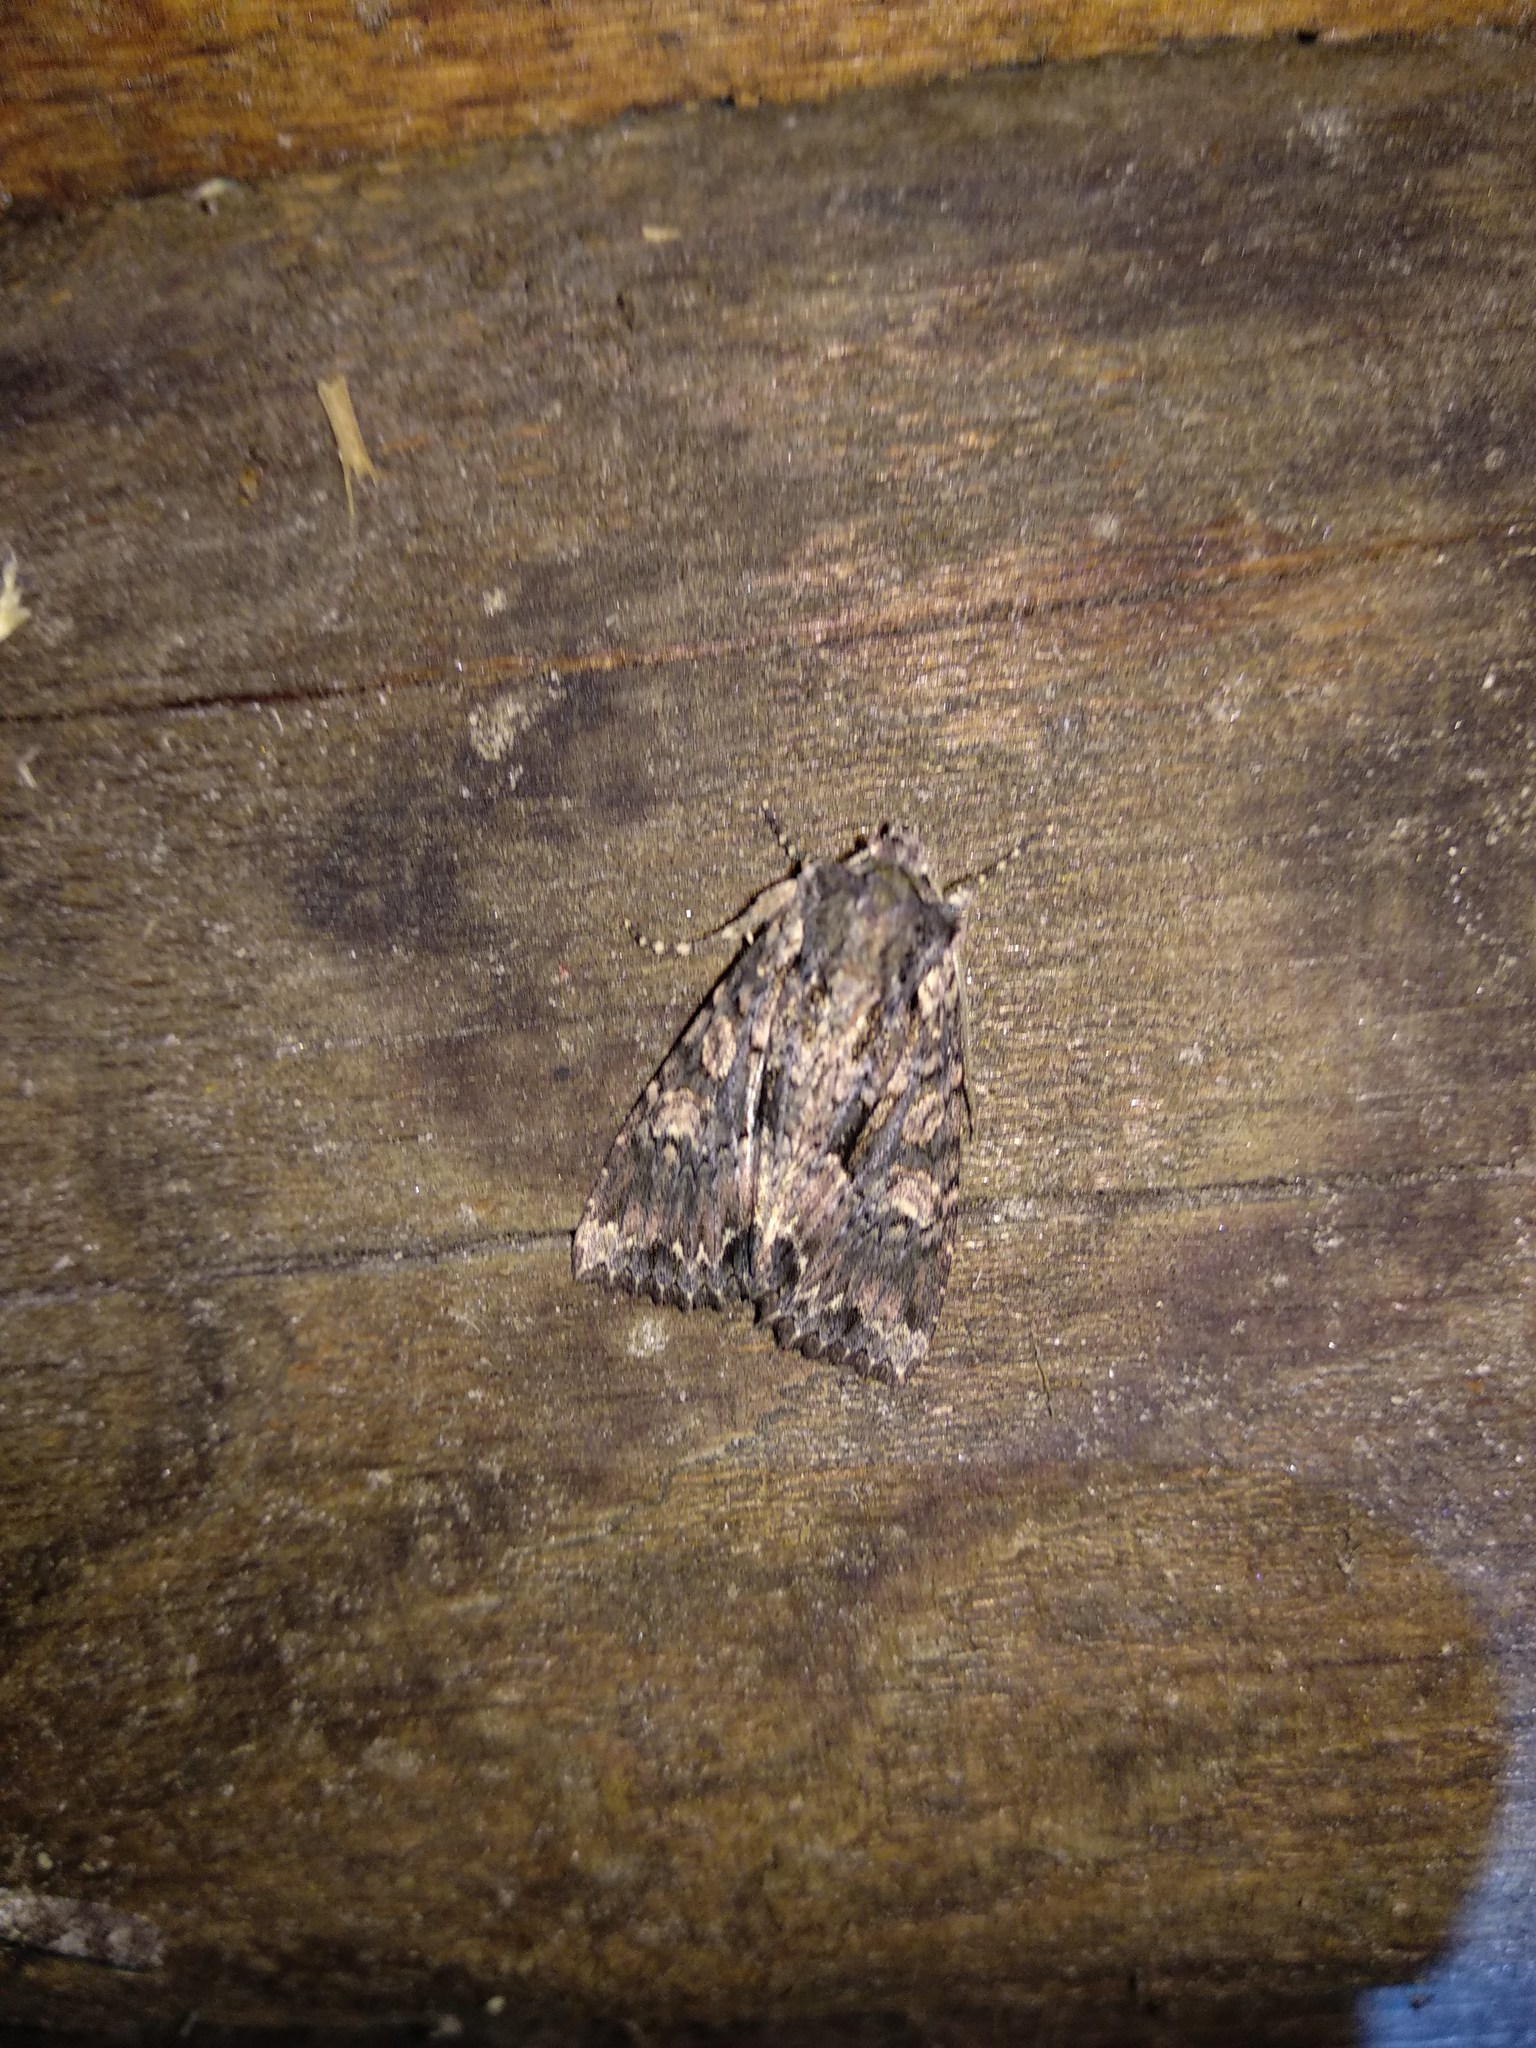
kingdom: Animalia
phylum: Arthropoda
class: Insecta
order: Lepidoptera
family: Noctuidae
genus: Mniotype
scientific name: Mniotype satura
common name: Beautiful arches
